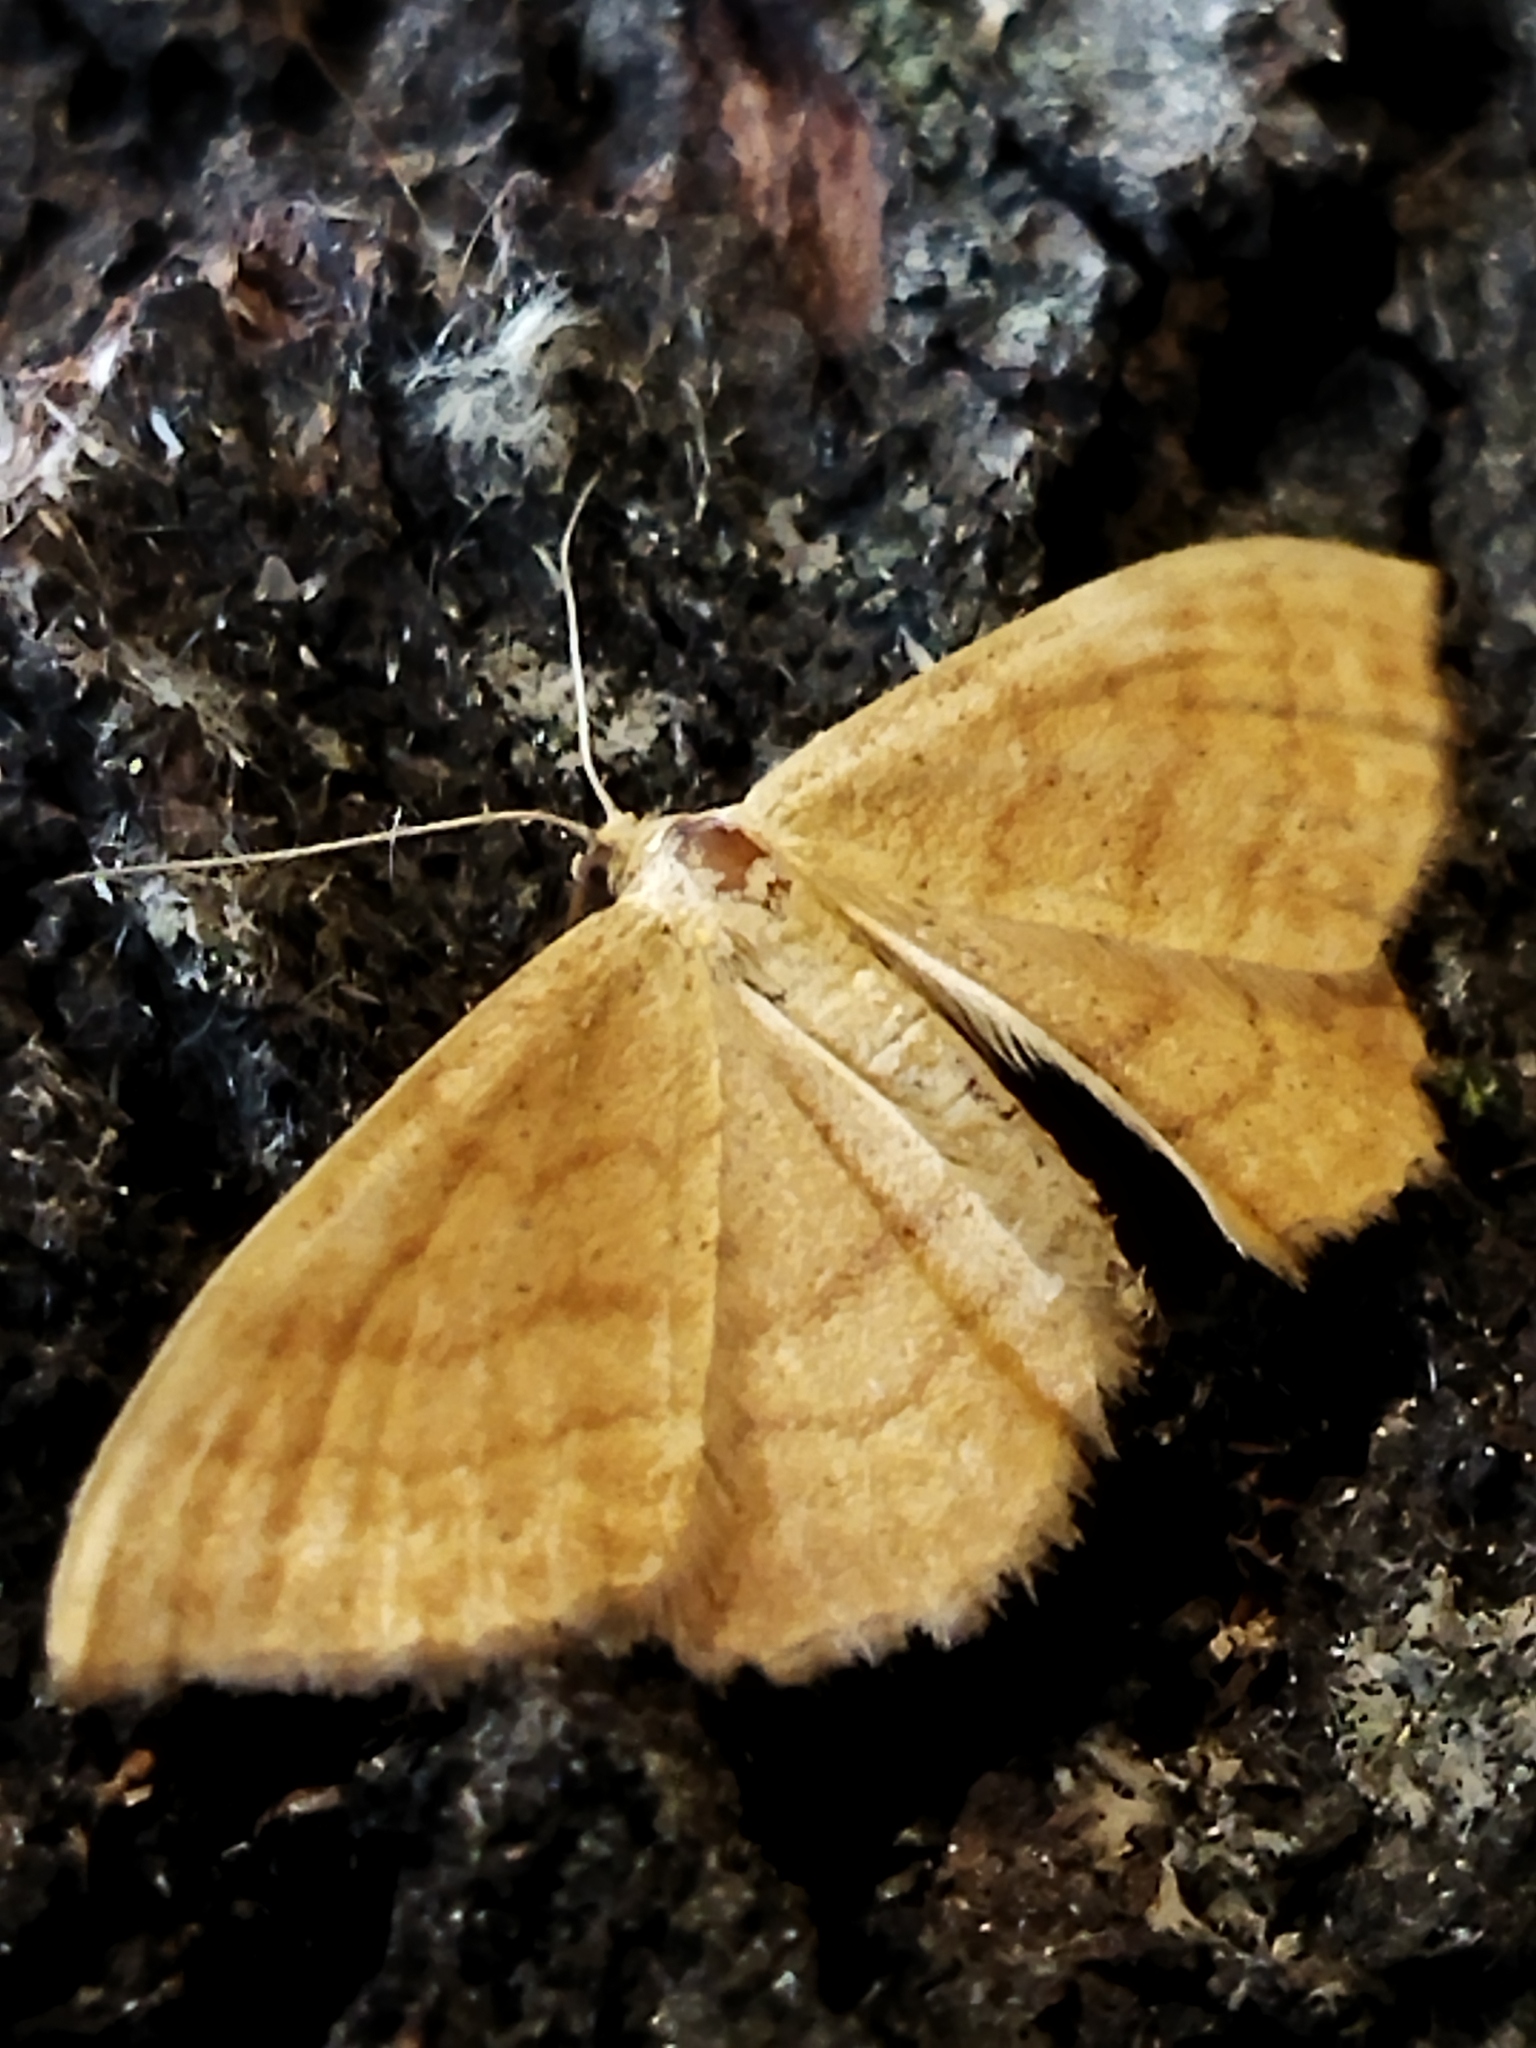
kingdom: Animalia
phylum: Arthropoda
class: Insecta
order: Lepidoptera
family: Geometridae
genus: Idaea
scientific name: Idaea ochrata
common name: Bright wave
